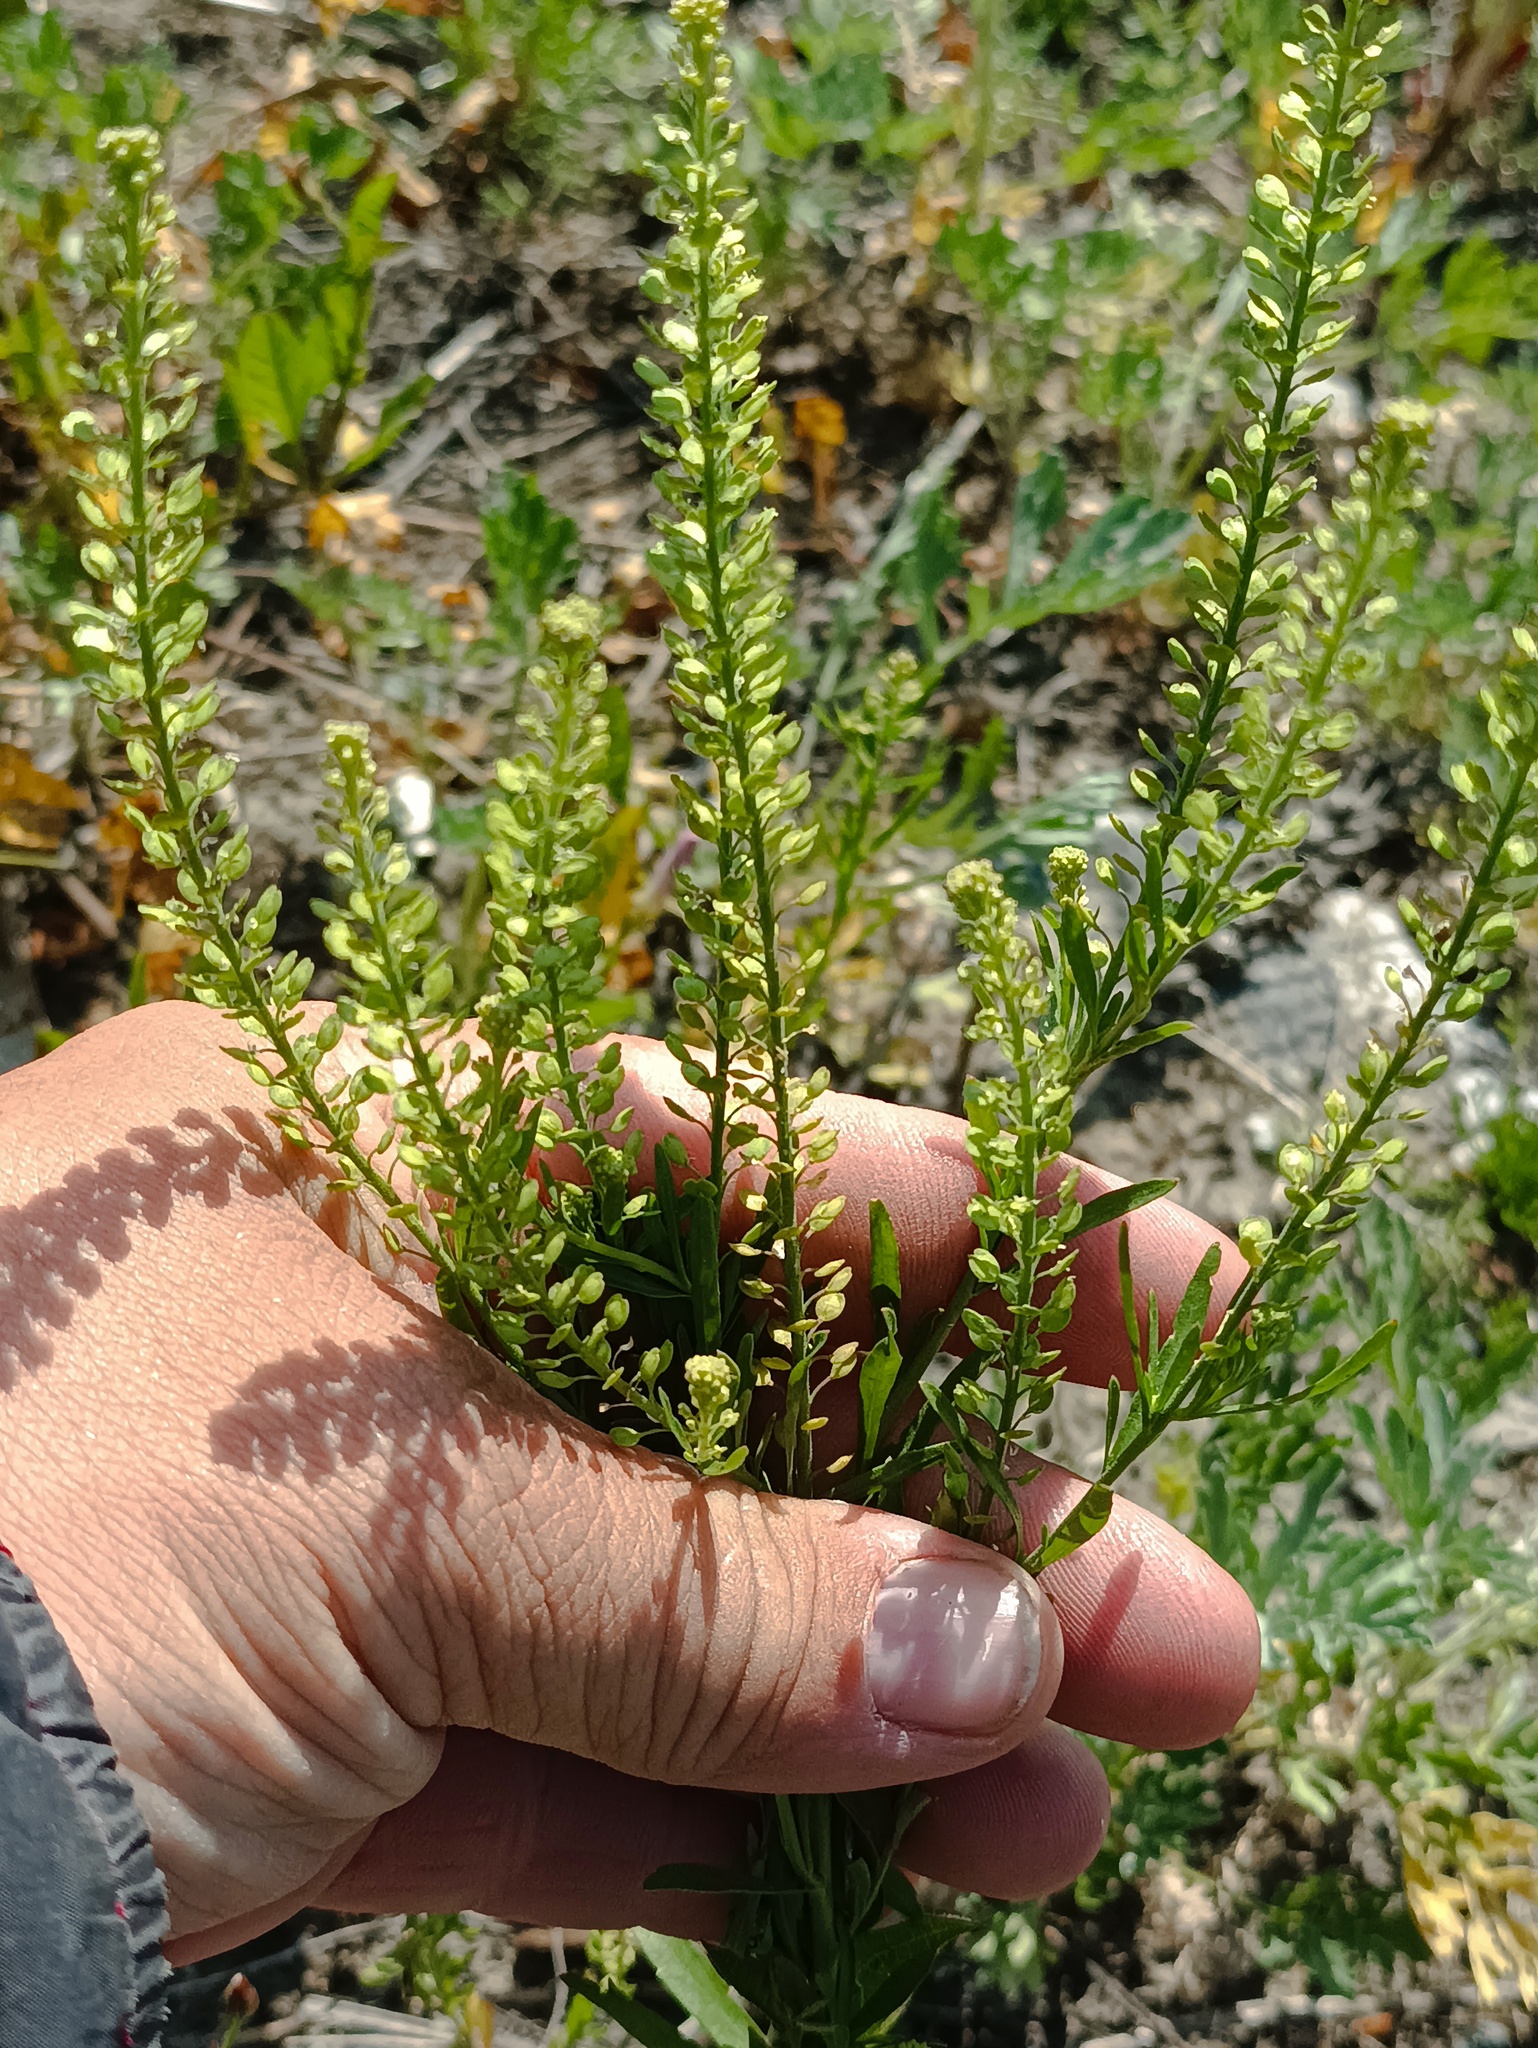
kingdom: Plantae
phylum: Tracheophyta
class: Magnoliopsida
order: Brassicales
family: Brassicaceae
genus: Lepidium
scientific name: Lepidium densiflorum
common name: Miner's pepperwort
